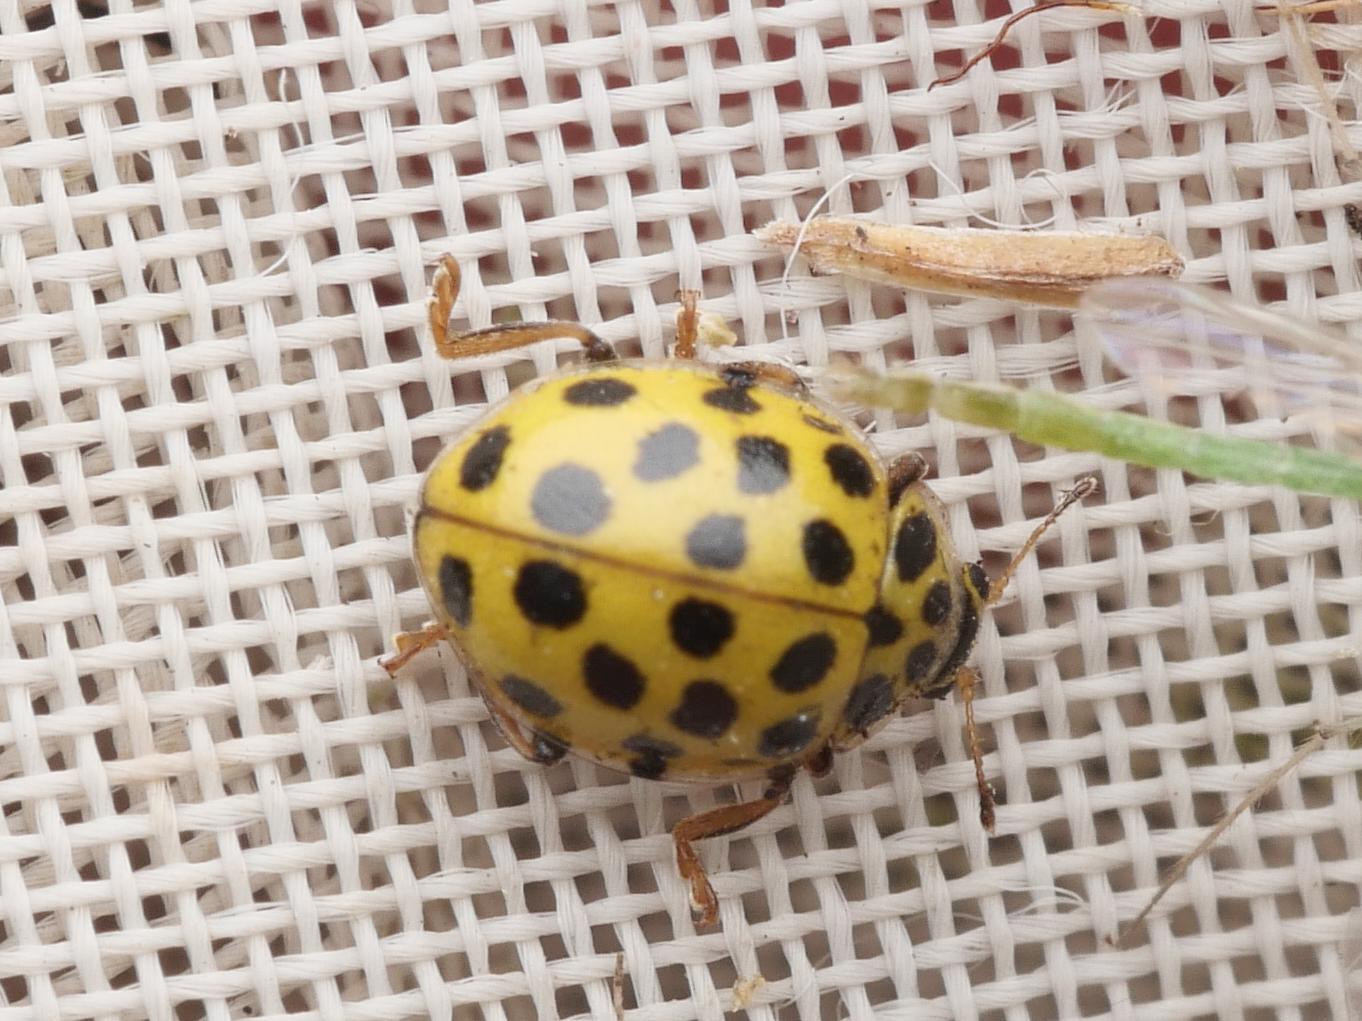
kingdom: Animalia
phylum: Arthropoda
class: Insecta
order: Coleoptera
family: Coccinellidae
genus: Psyllobora
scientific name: Psyllobora vigintiduopunctata
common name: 22-spot ladybird
